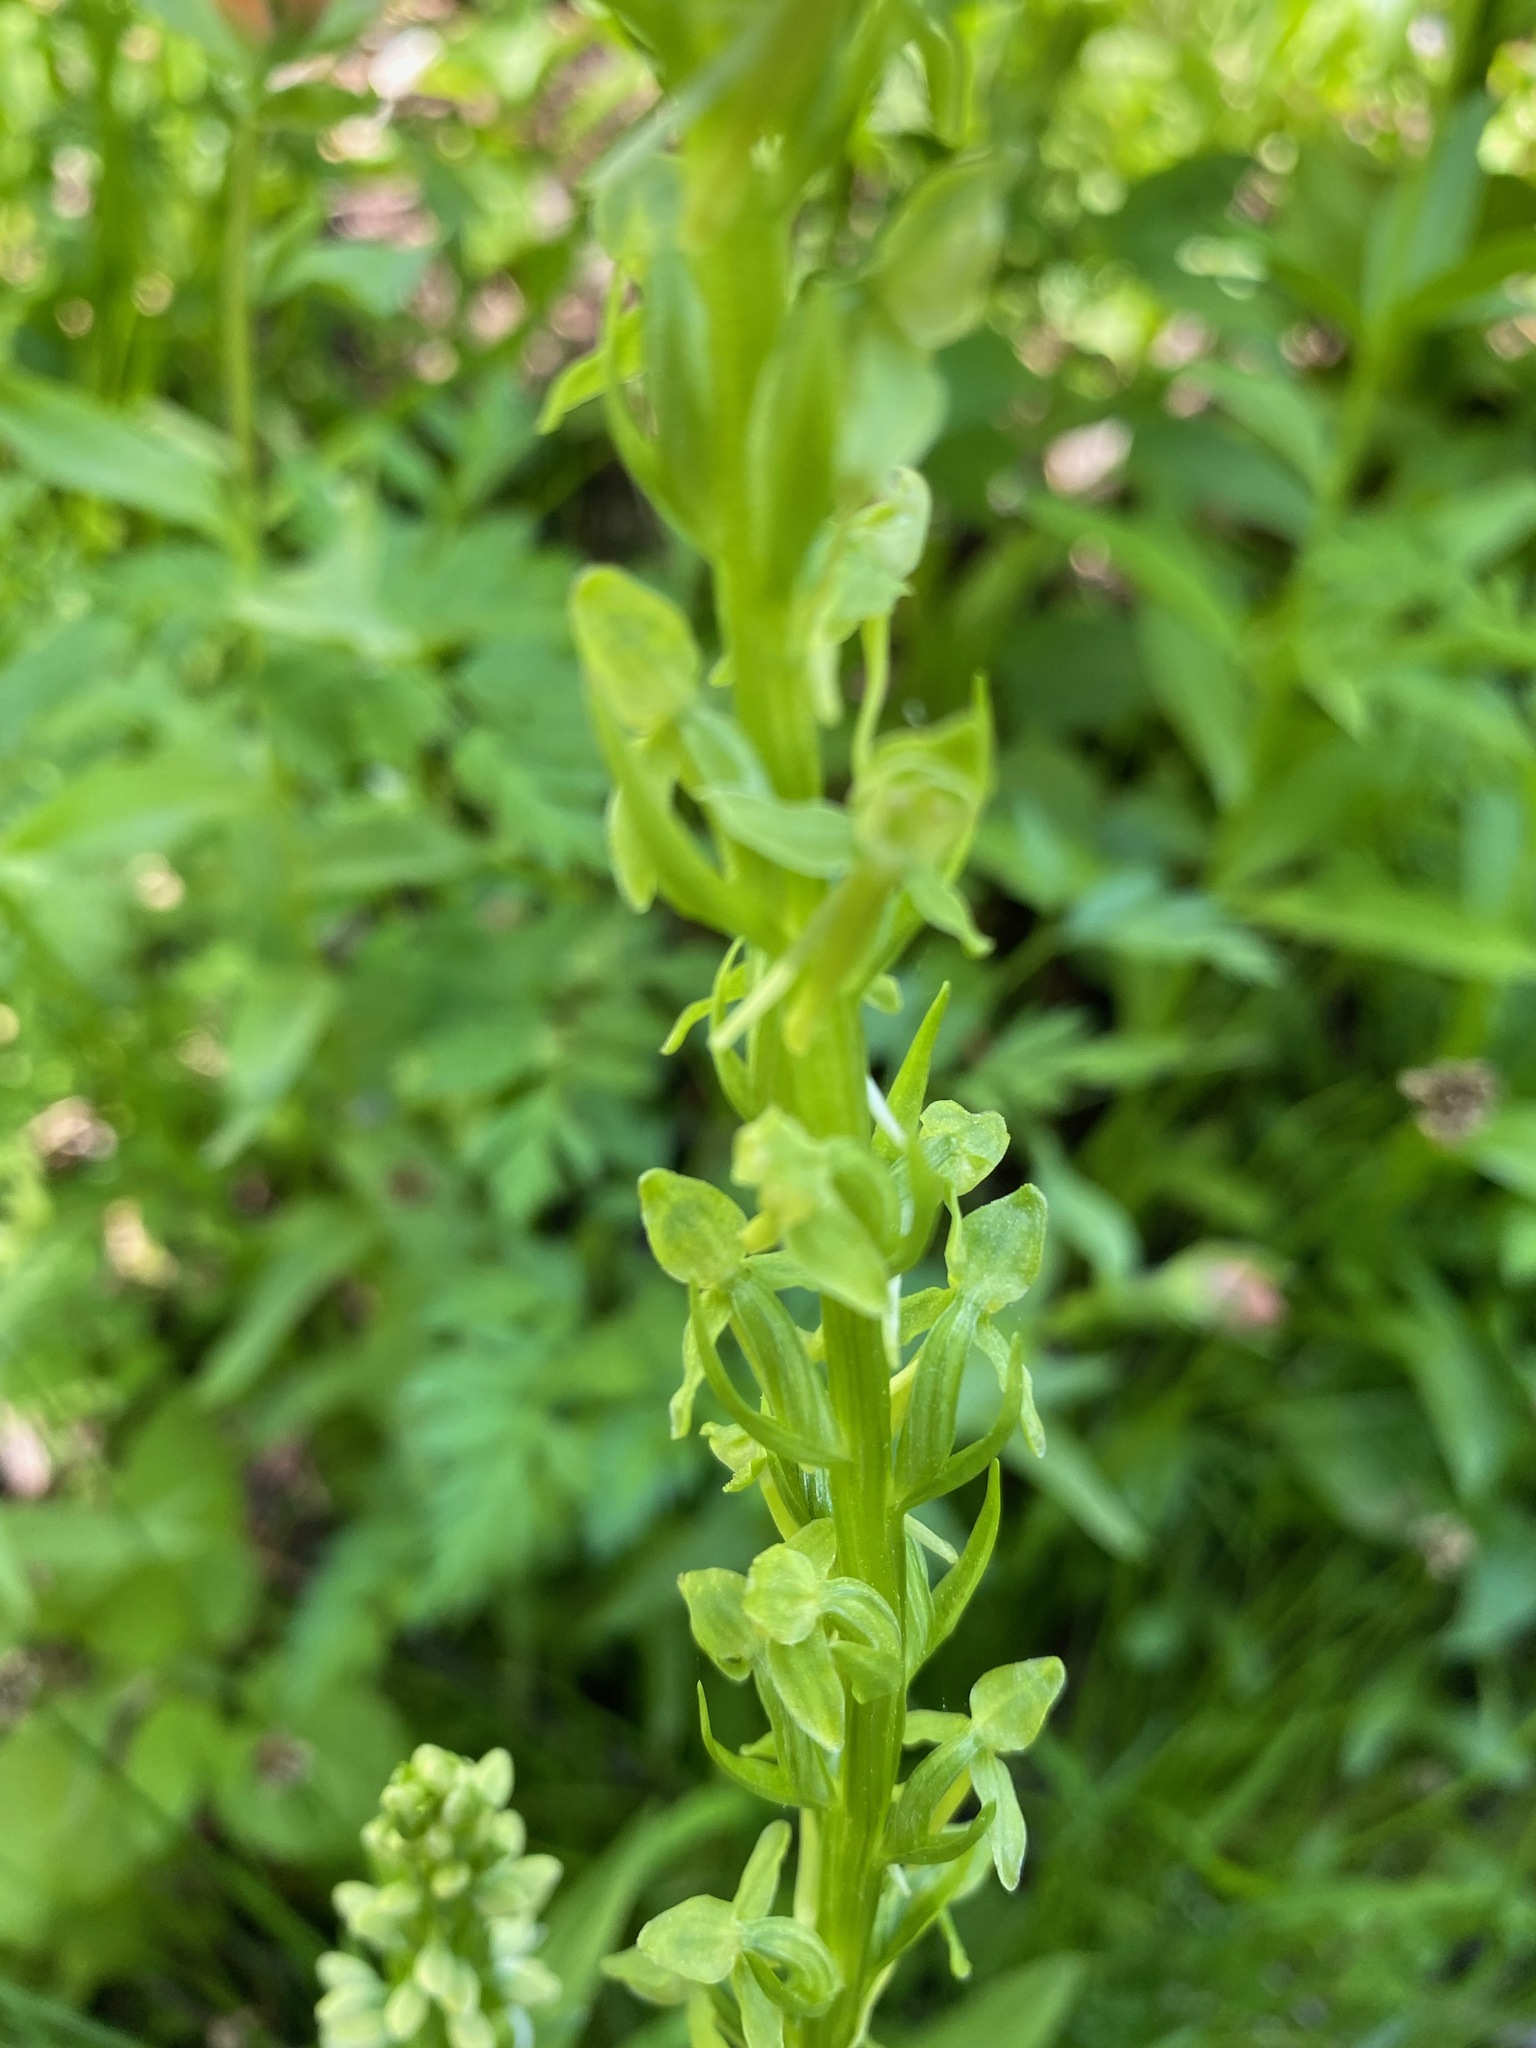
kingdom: Plantae
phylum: Tracheophyta
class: Liliopsida
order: Asparagales
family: Orchidaceae
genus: Platanthera
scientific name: Platanthera sparsiflora
